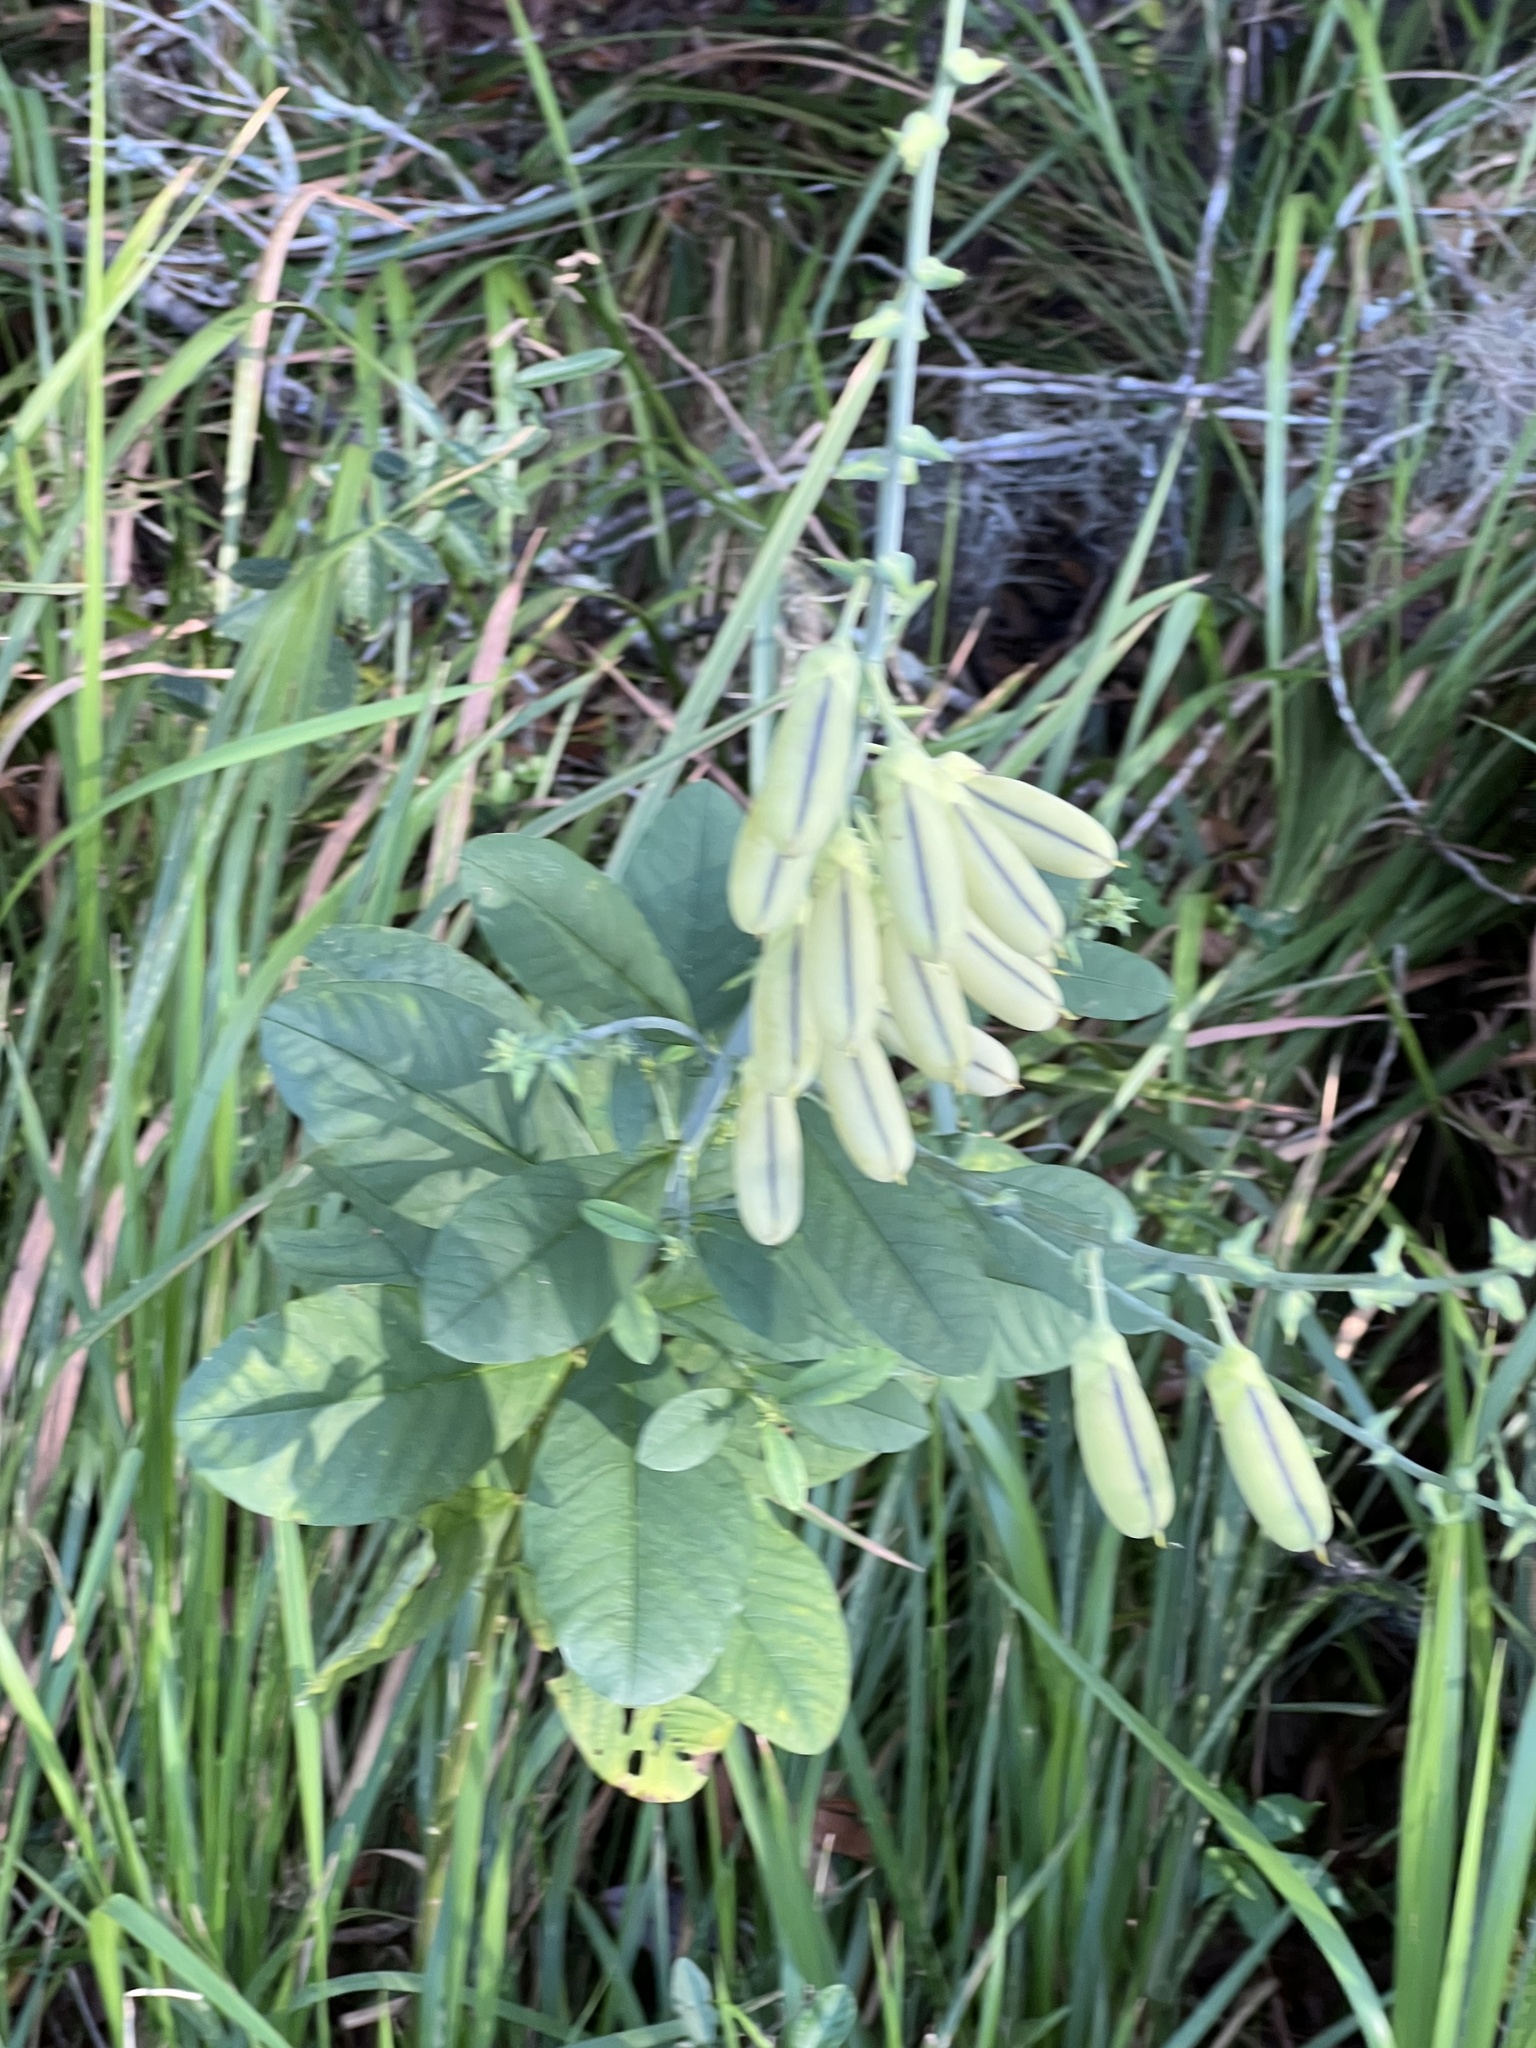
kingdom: Plantae
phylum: Tracheophyta
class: Magnoliopsida
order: Fabales
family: Fabaceae
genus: Crotalaria
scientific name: Crotalaria spectabilis
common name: Showy rattlebox
